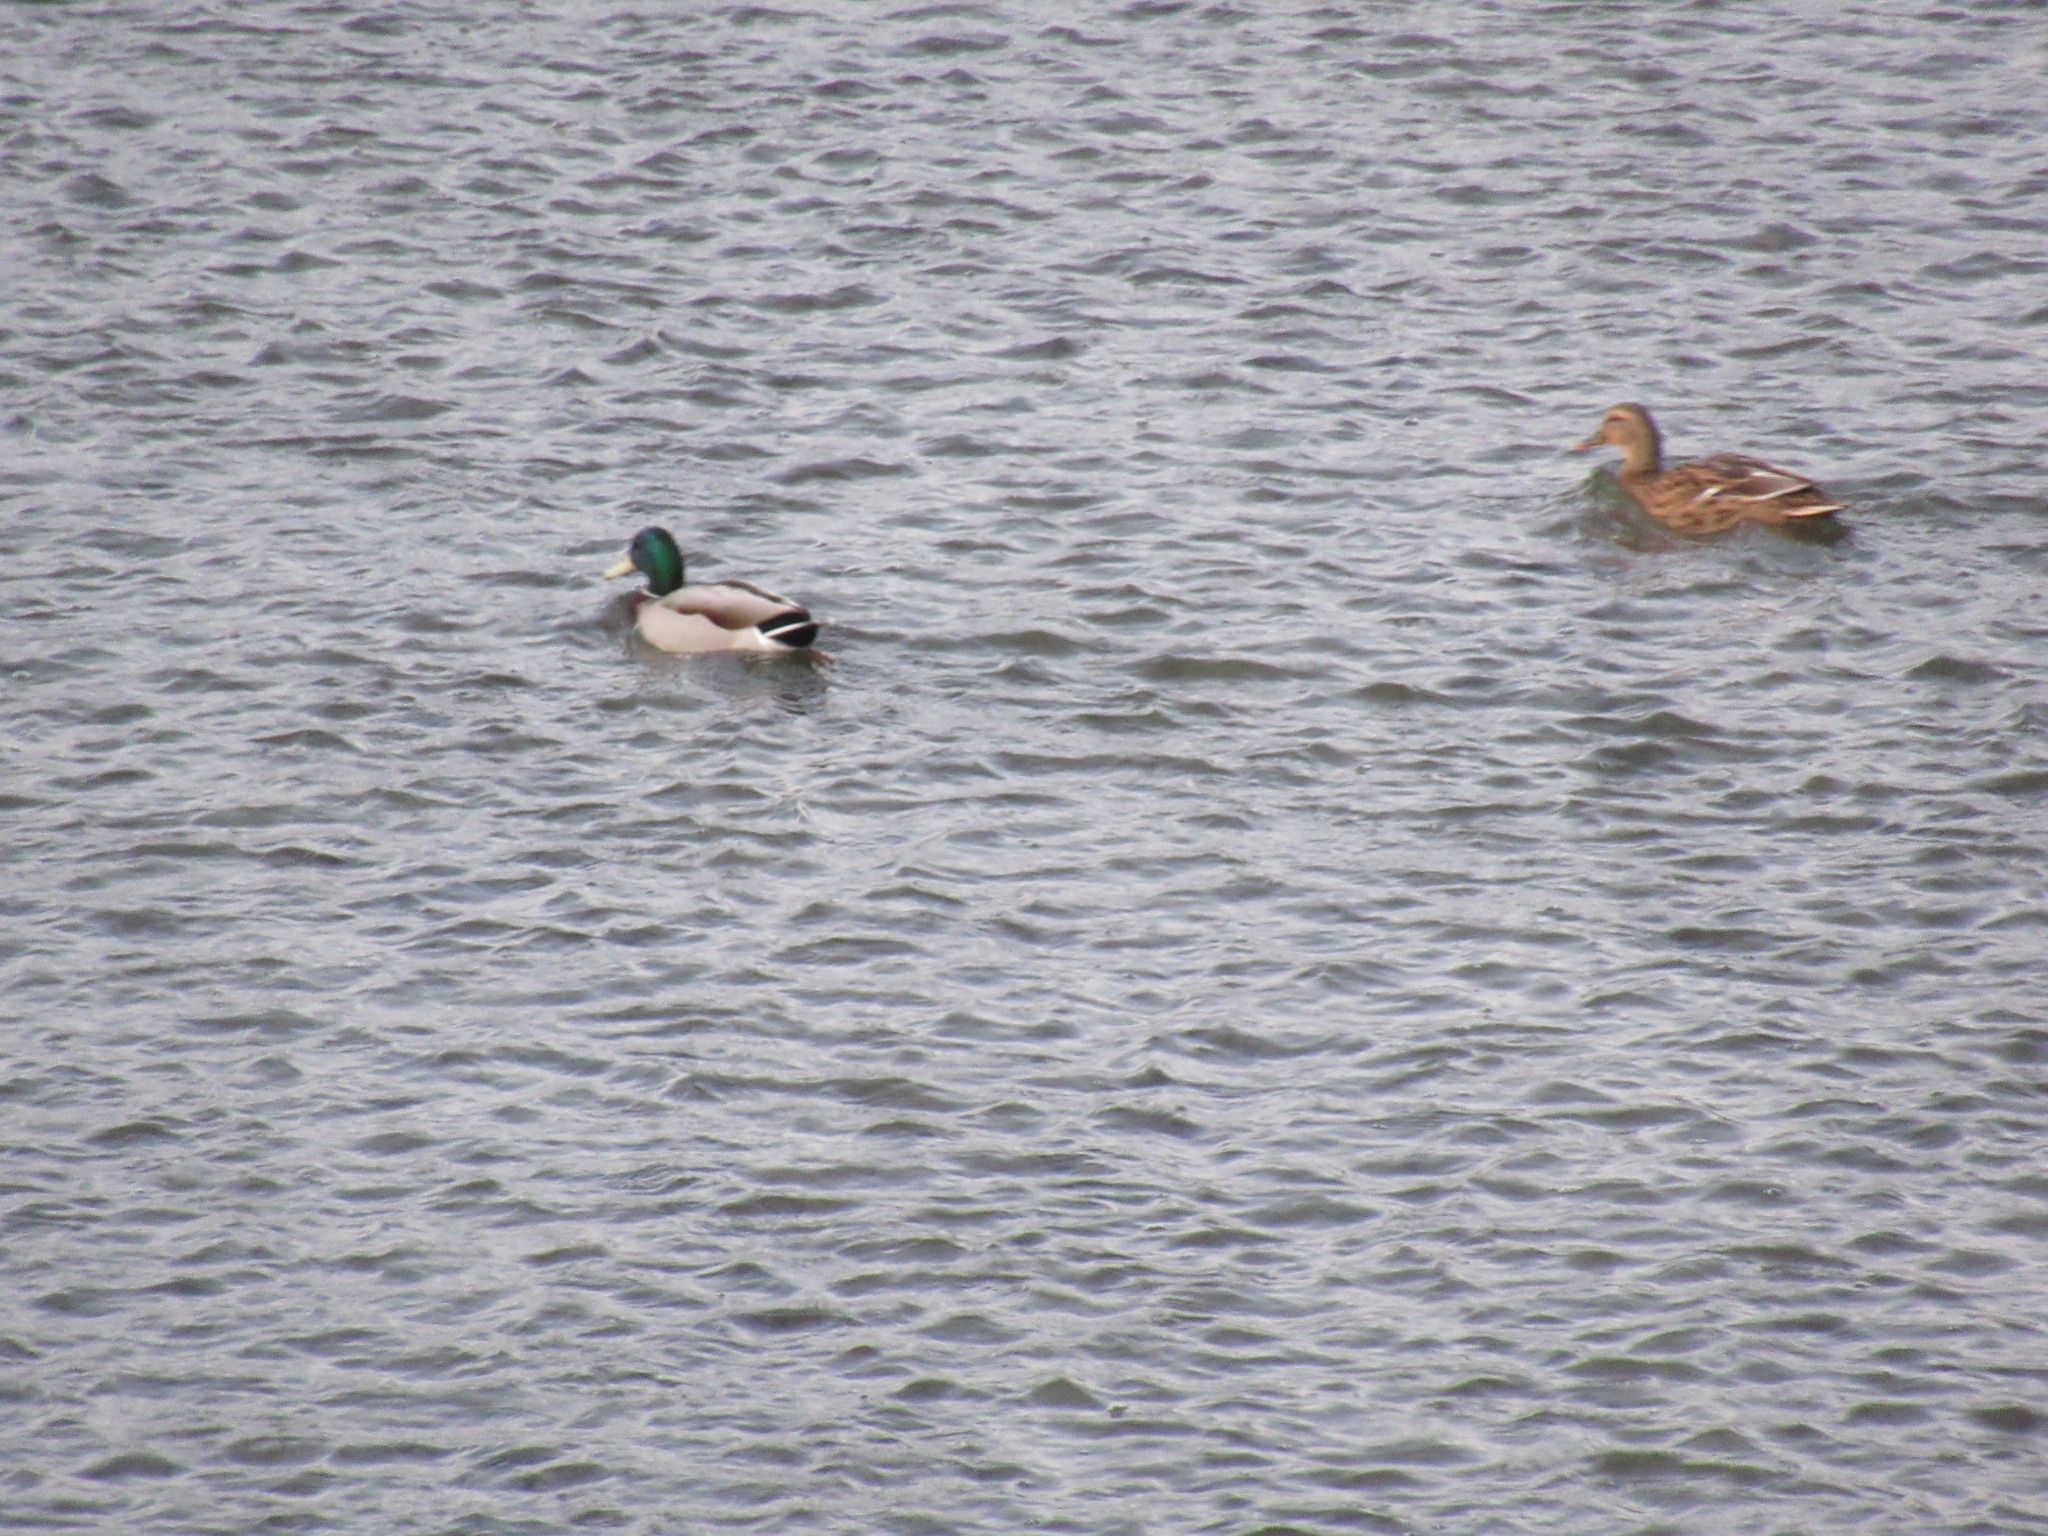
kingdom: Animalia
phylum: Chordata
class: Aves
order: Anseriformes
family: Anatidae
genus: Anas
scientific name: Anas platyrhynchos
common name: Mallard
